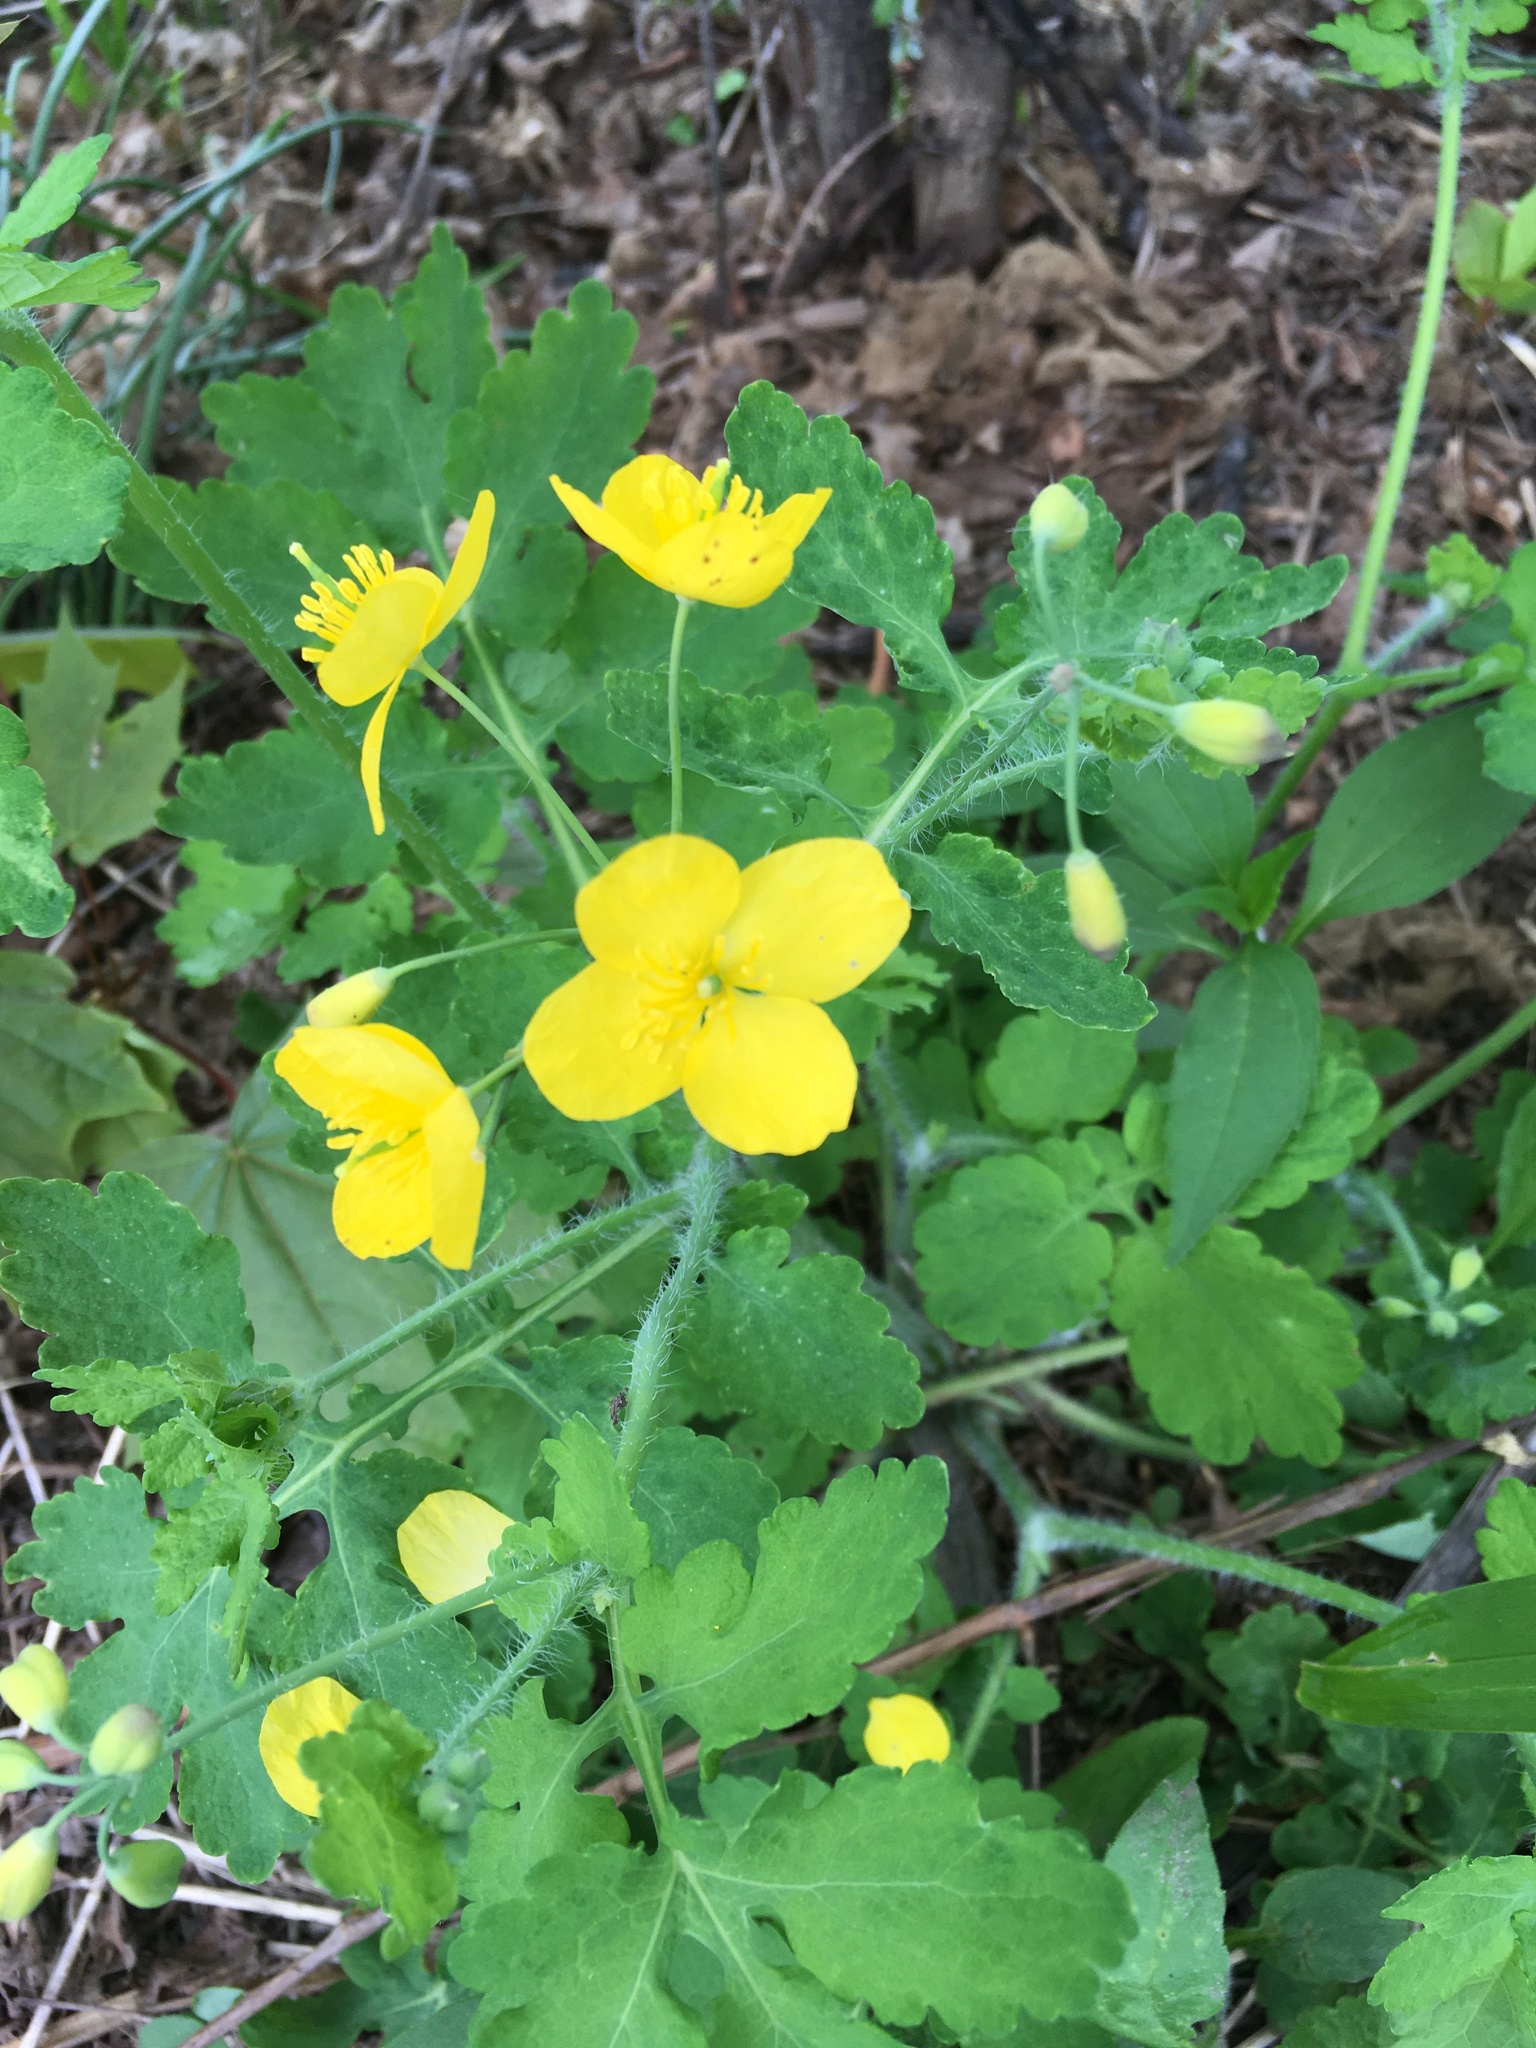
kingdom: Plantae
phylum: Tracheophyta
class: Magnoliopsida
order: Ranunculales
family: Papaveraceae
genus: Chelidonium
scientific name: Chelidonium majus
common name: Greater celandine
